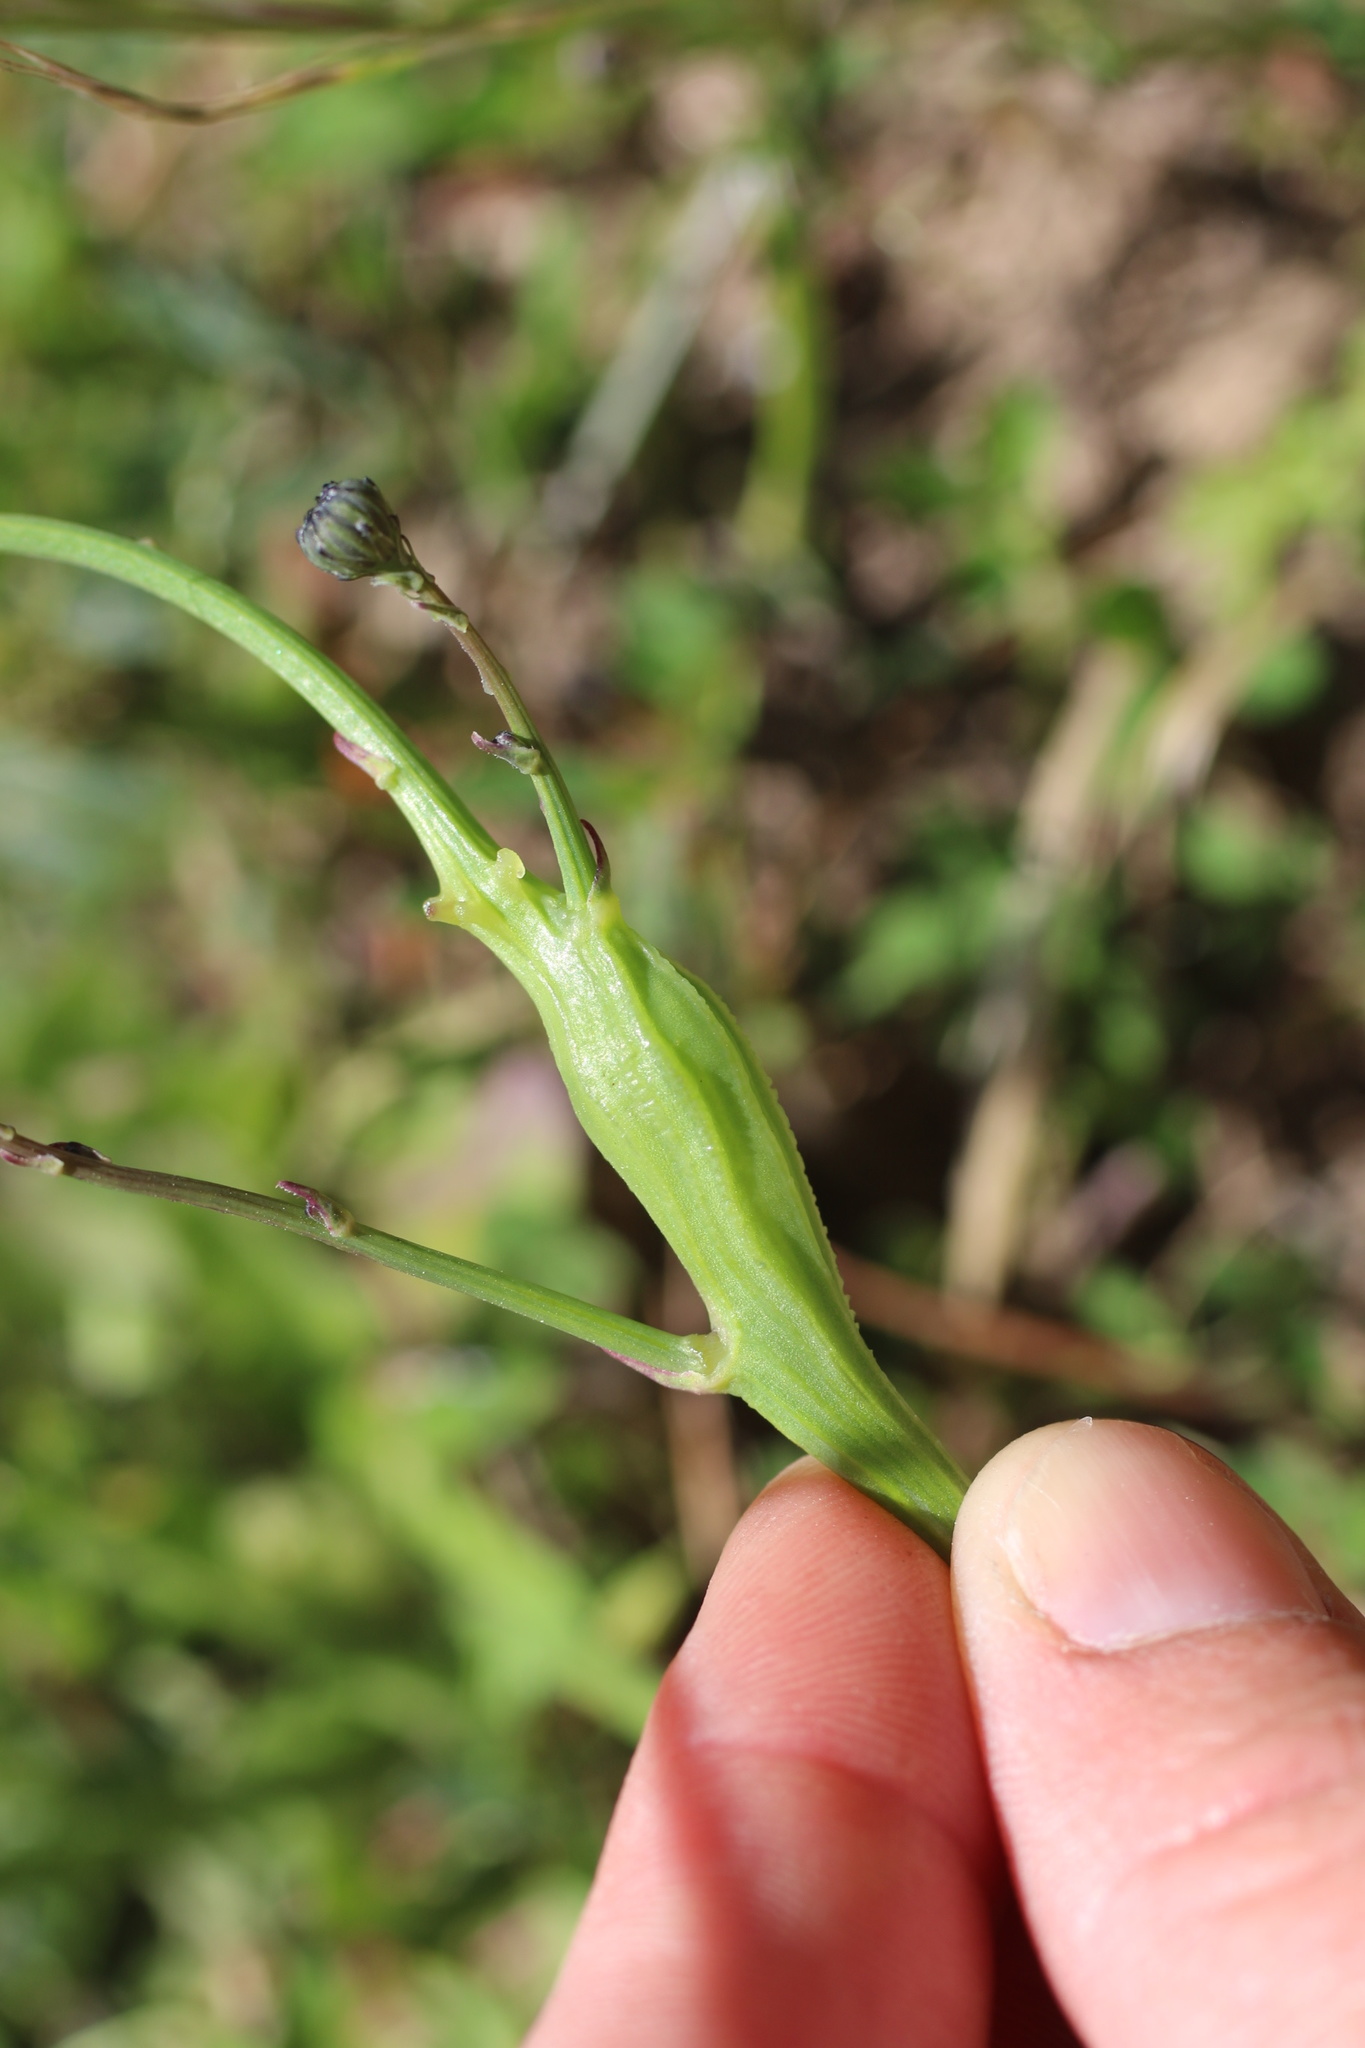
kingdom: Animalia
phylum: Arthropoda
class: Insecta
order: Hymenoptera
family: Cynipidae
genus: Phanacis
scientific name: Phanacis hypochoeridis
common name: Gall wasp
